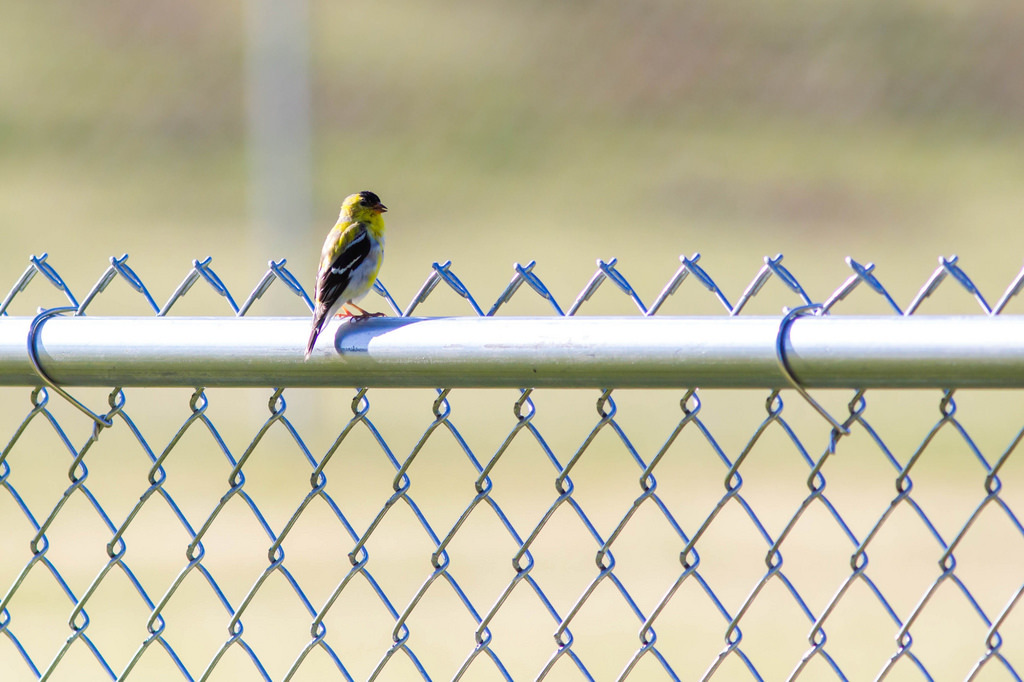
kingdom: Animalia
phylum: Chordata
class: Aves
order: Passeriformes
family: Fringillidae
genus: Spinus
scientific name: Spinus tristis
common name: American goldfinch
